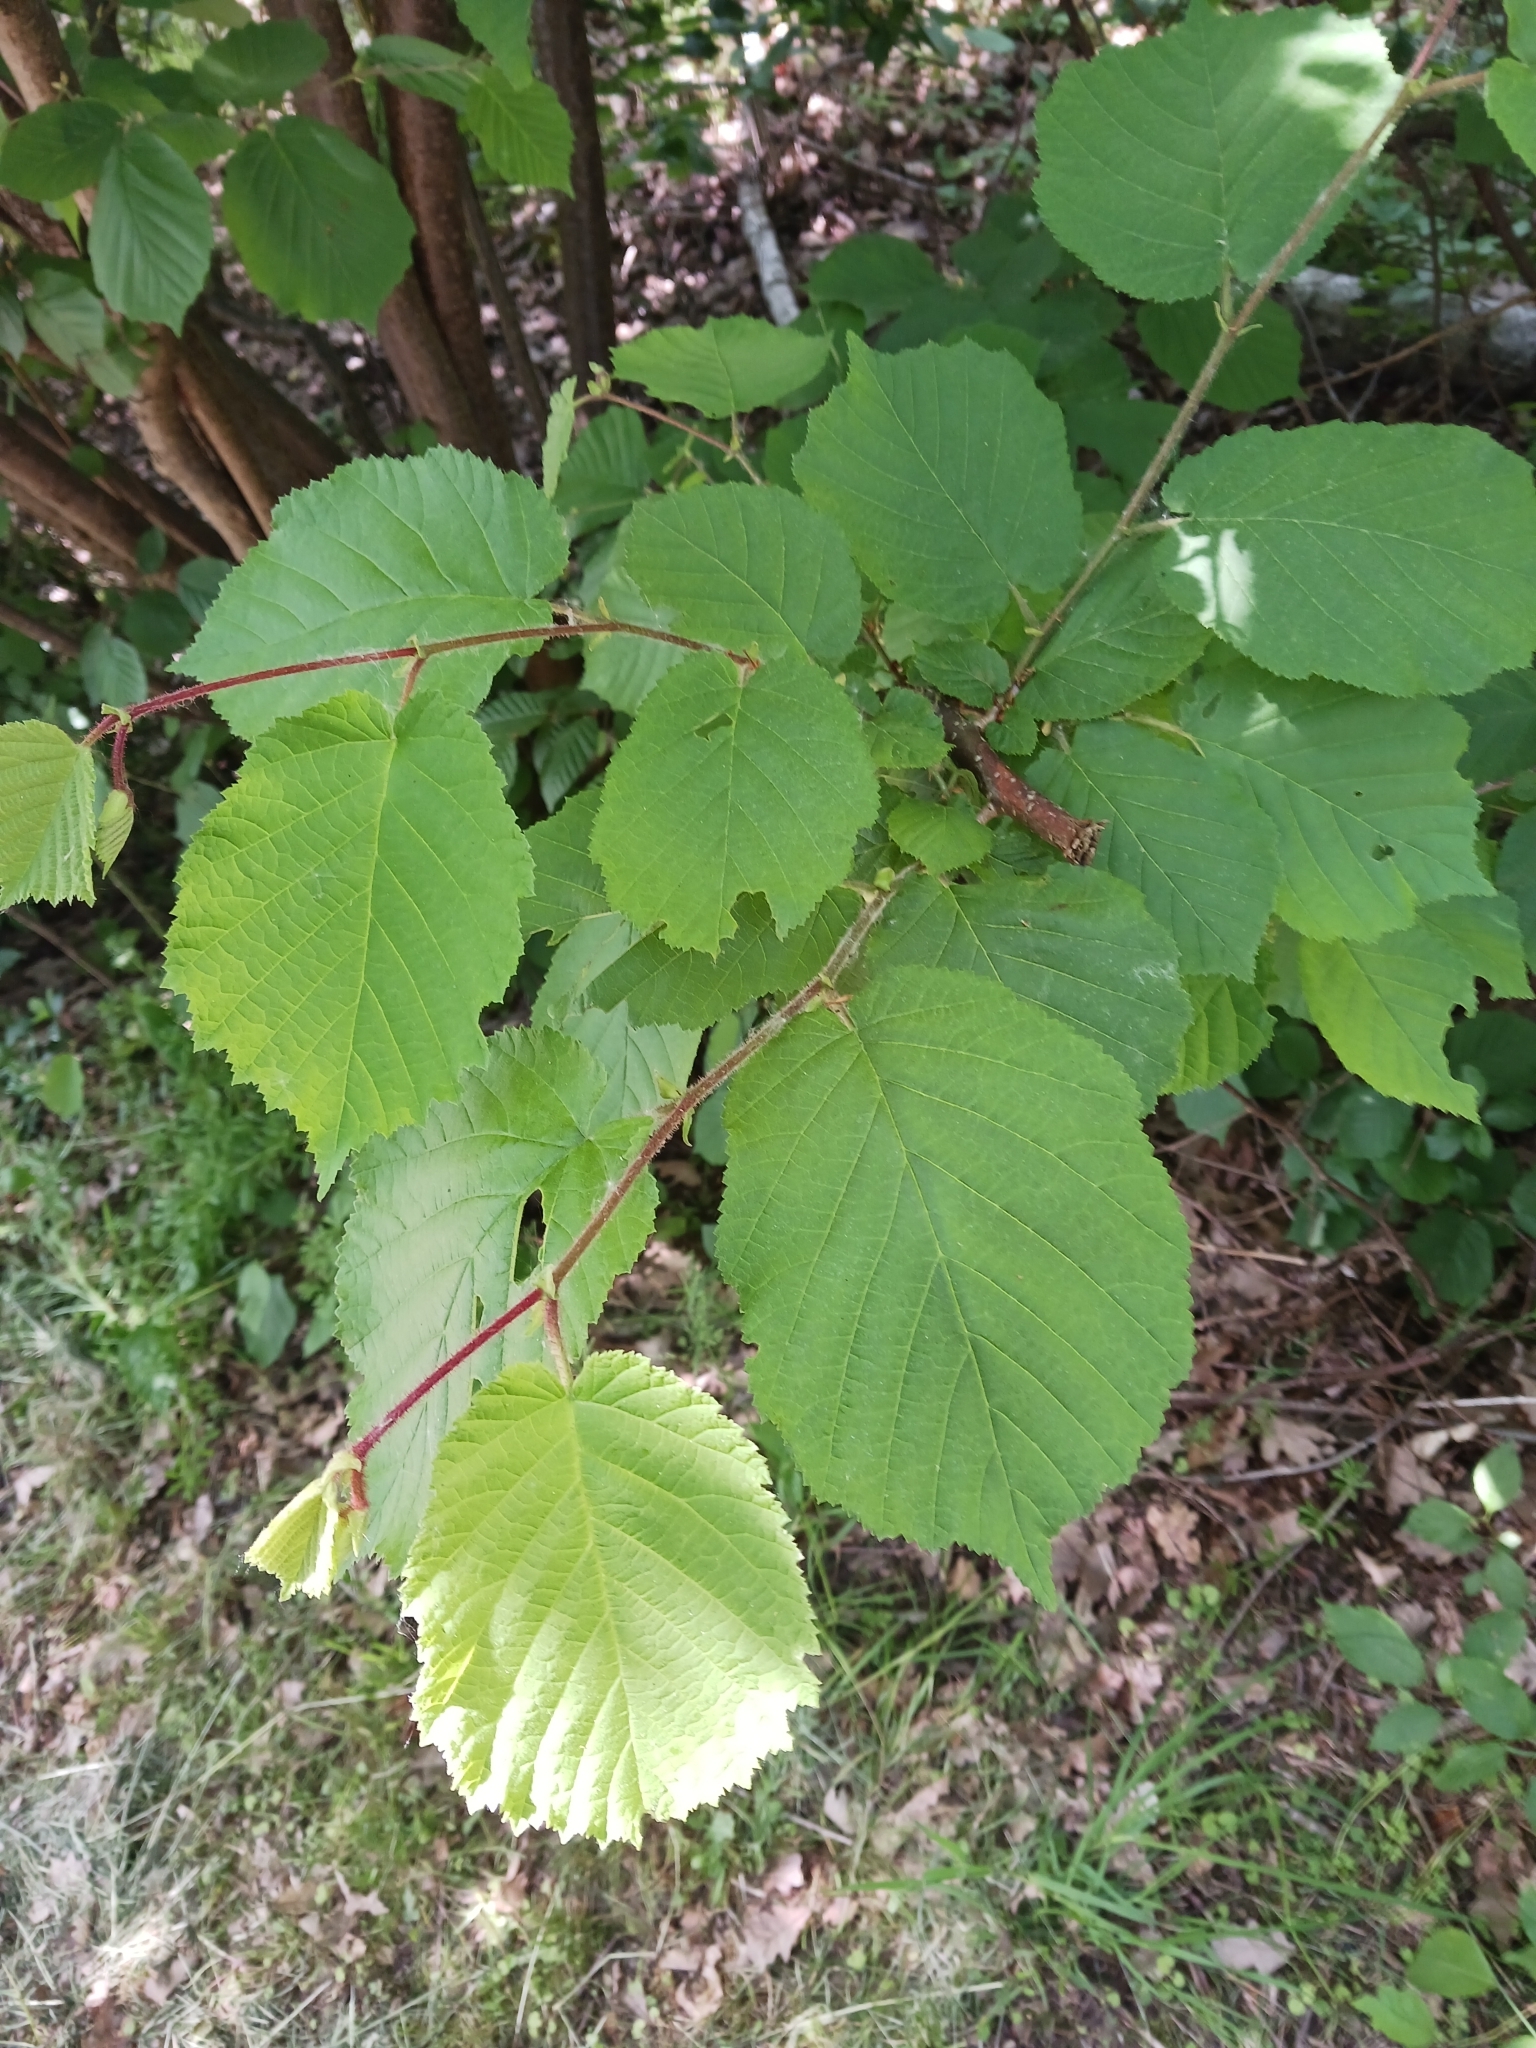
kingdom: Plantae
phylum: Tracheophyta
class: Magnoliopsida
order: Fagales
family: Betulaceae
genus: Corylus
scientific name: Corylus avellana
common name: European hazel
